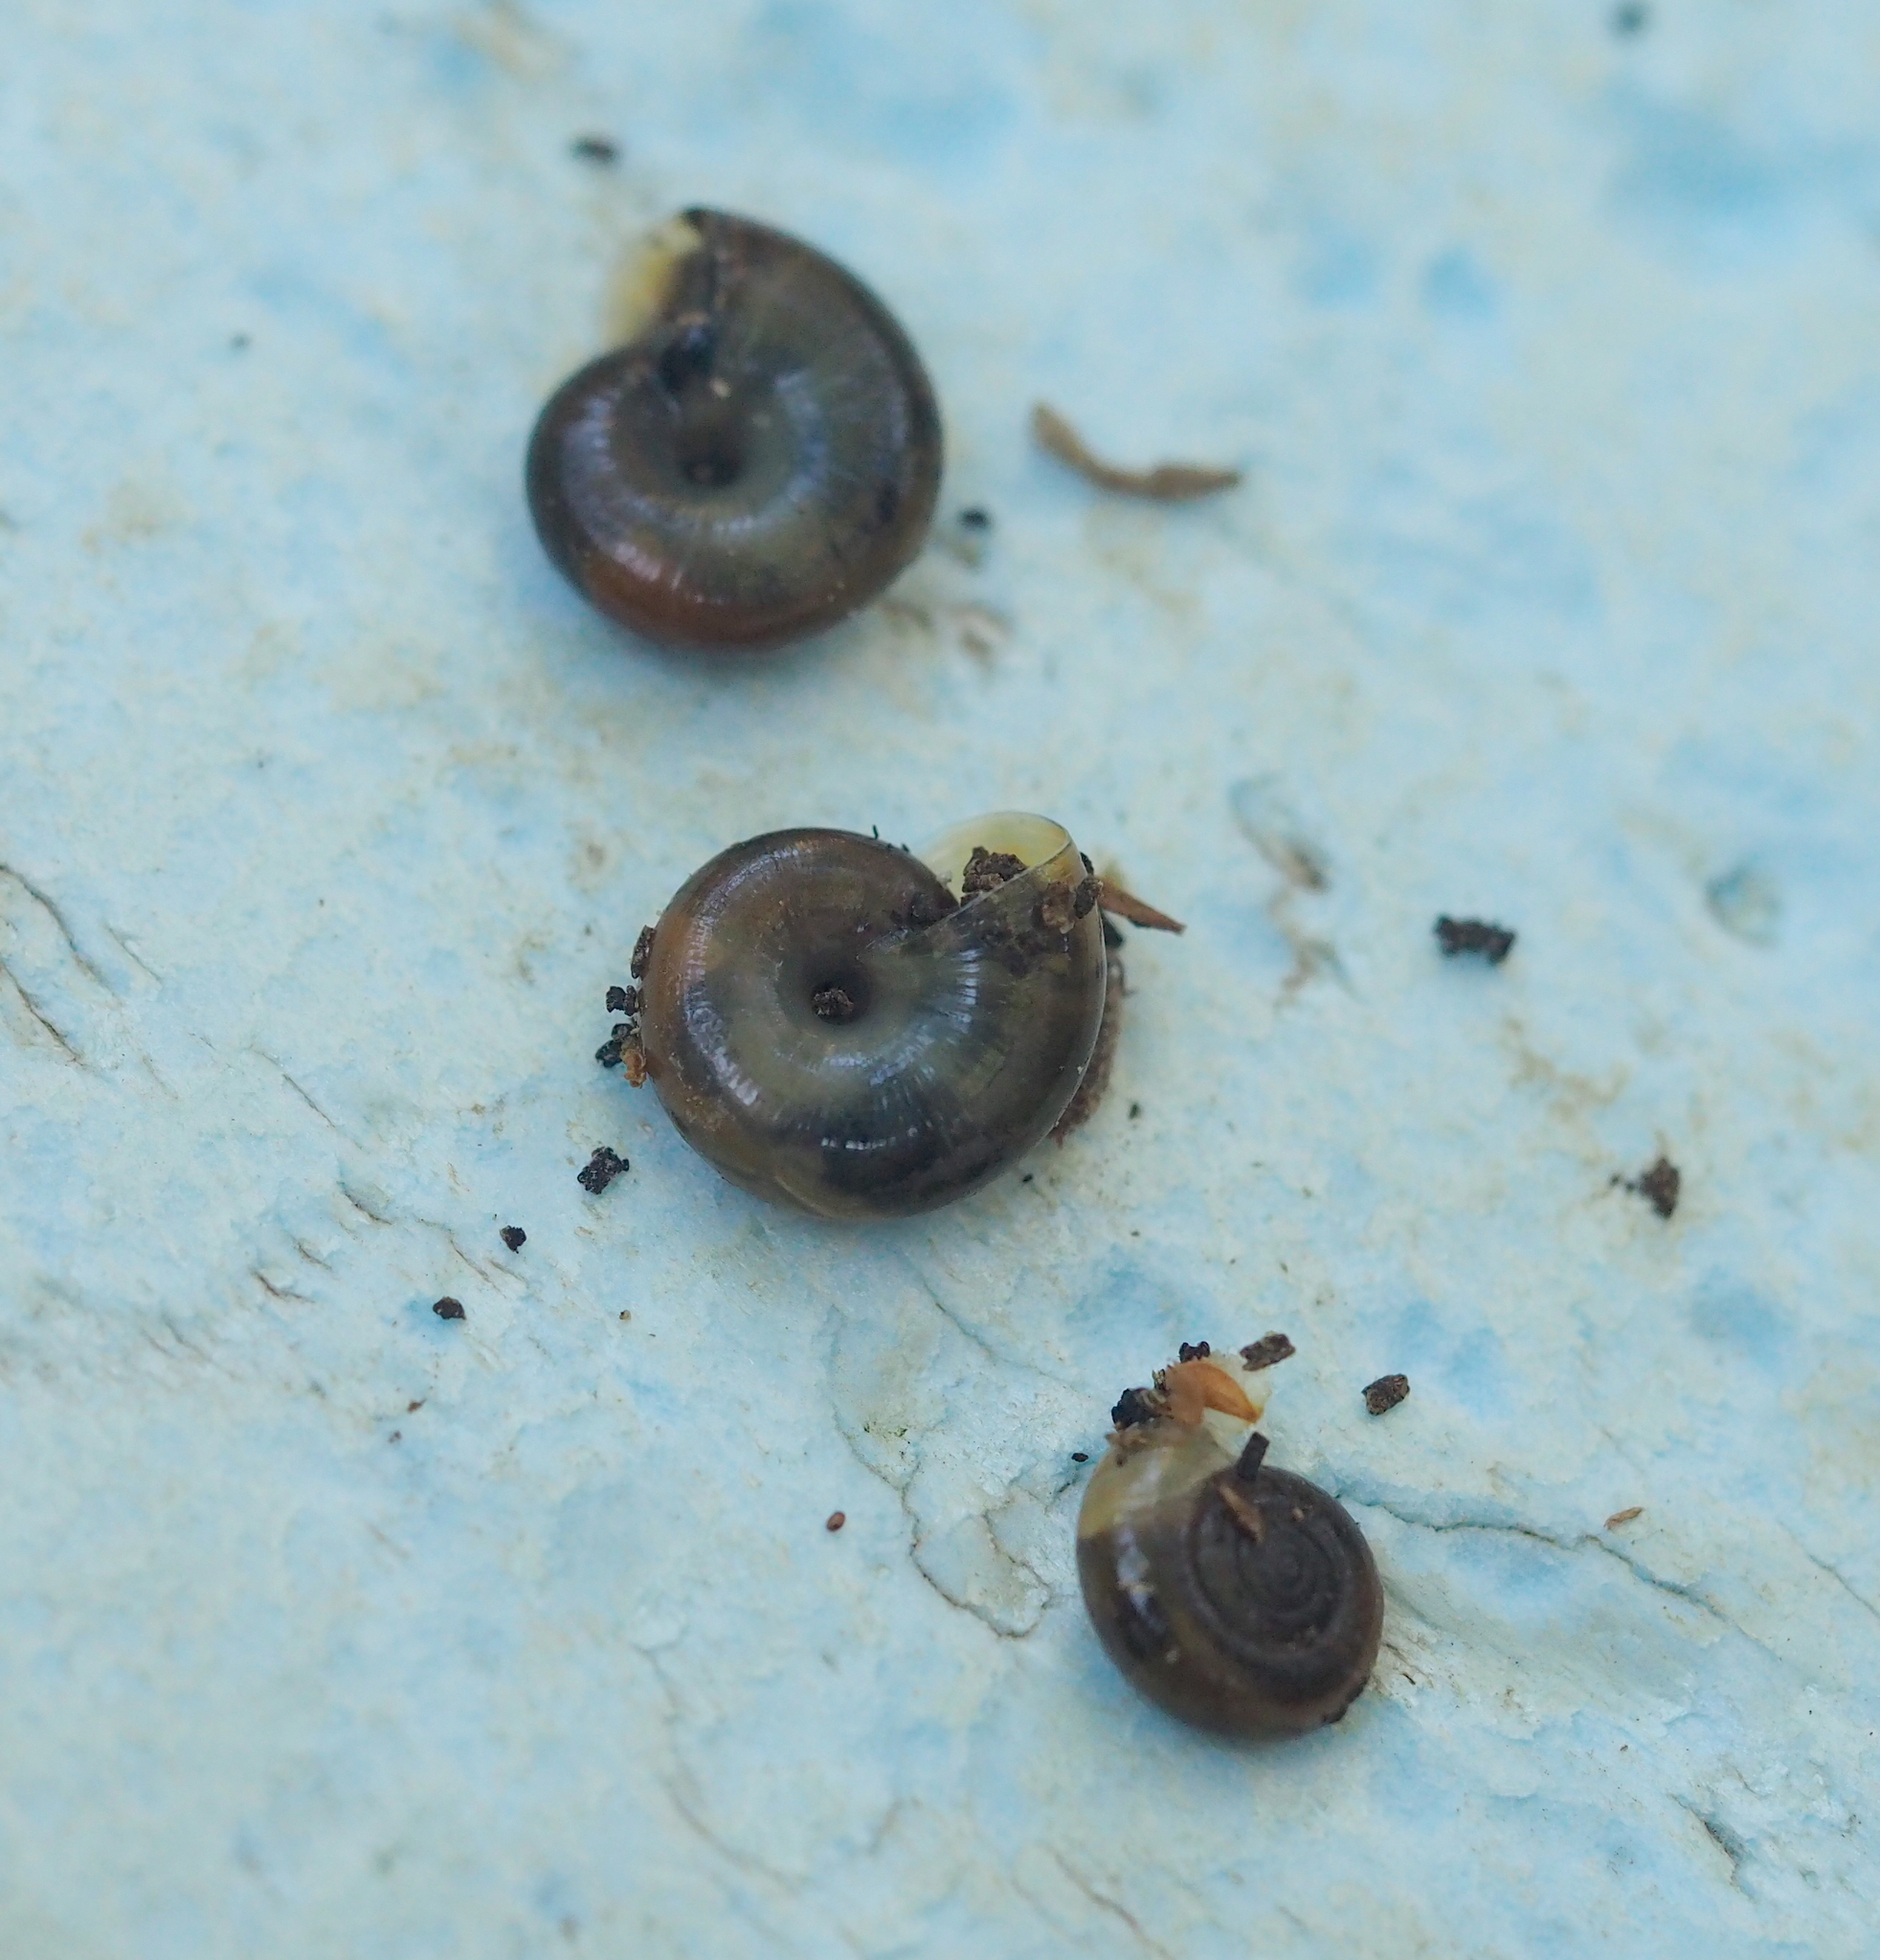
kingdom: Animalia
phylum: Mollusca
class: Gastropoda
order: Stylommatophora
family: Oxychilidae
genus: Oxychilus
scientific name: Oxychilus draparnaudi
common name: Draparnaud's glass snail
